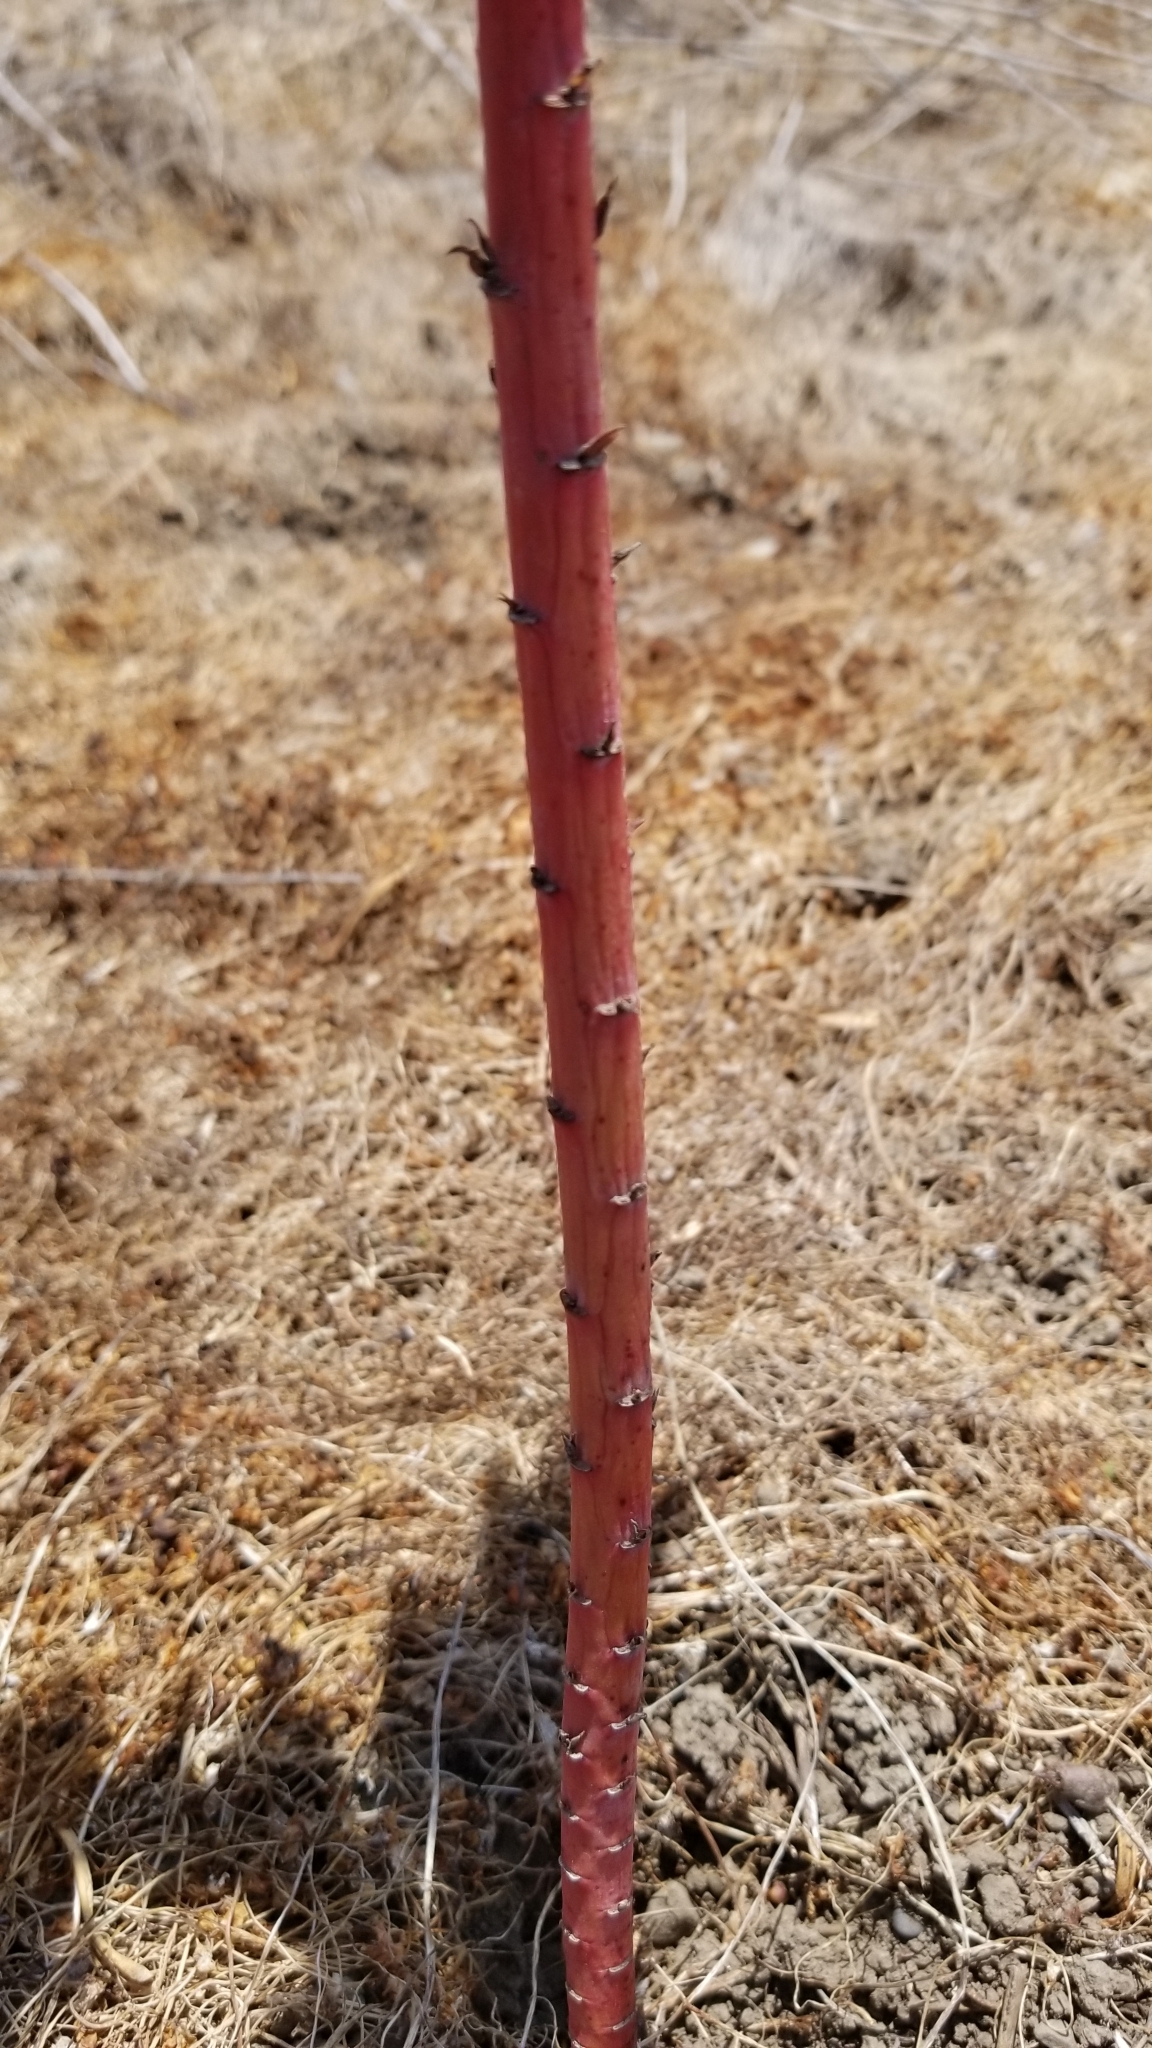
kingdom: Plantae
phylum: Tracheophyta
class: Magnoliopsida
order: Malpighiales
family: Euphorbiaceae
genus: Euphorbia
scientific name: Euphorbia lathyris
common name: Caper spurge
